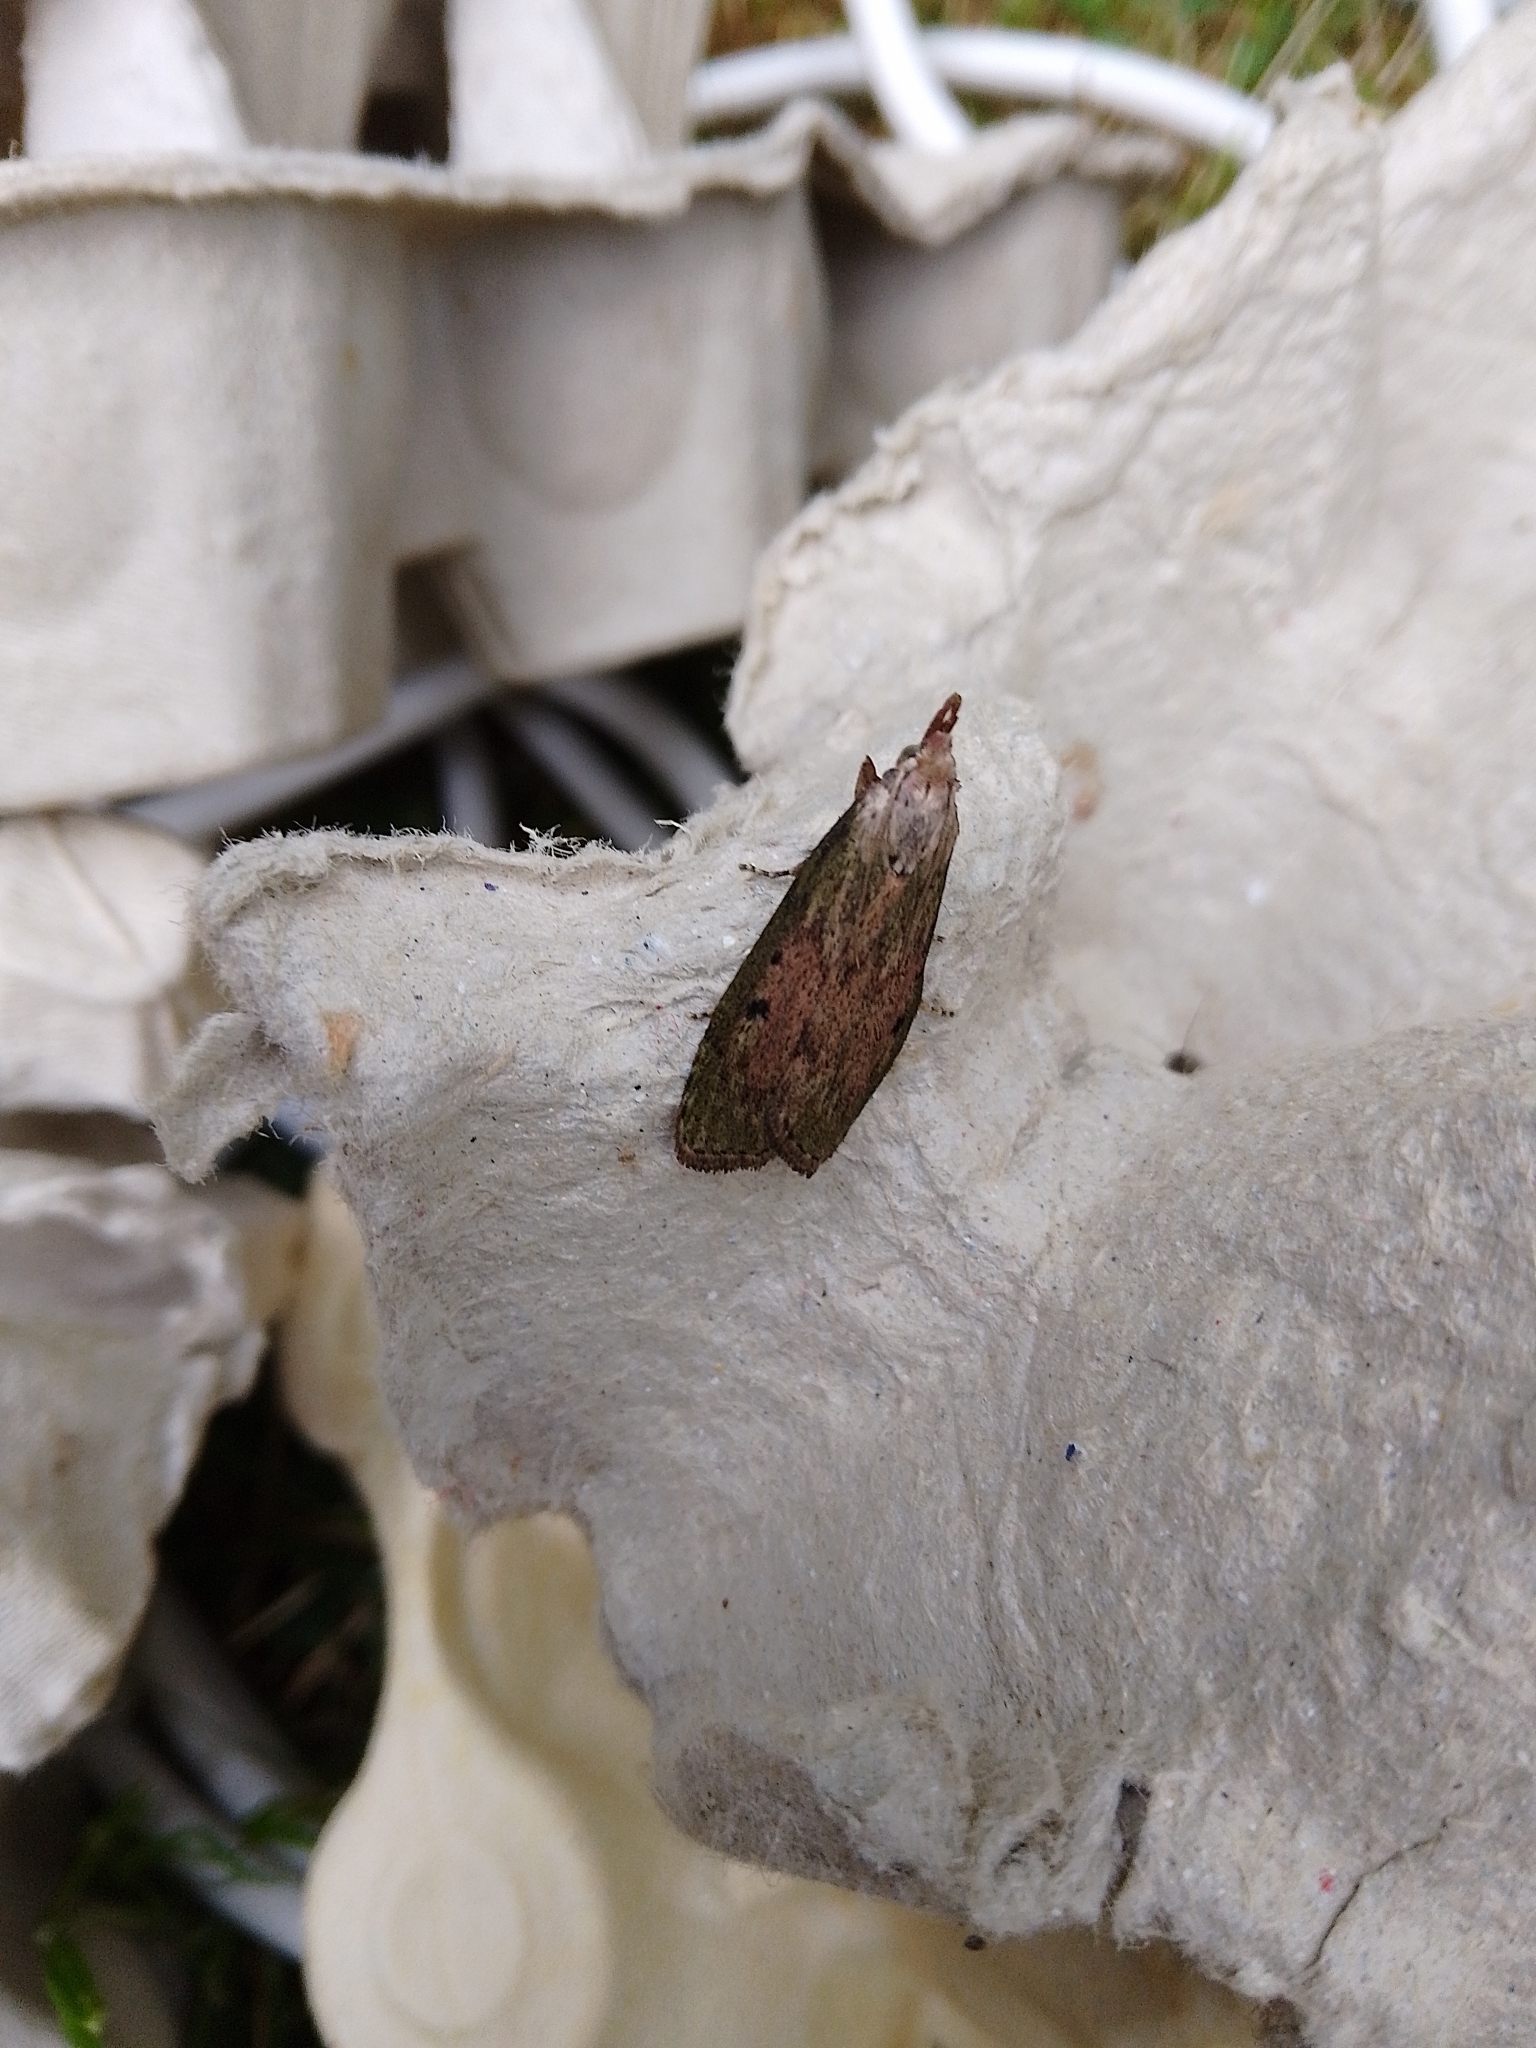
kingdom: Animalia
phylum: Arthropoda
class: Insecta
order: Lepidoptera
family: Pyralidae
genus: Aphomia
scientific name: Aphomia sociella
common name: Bee moth
